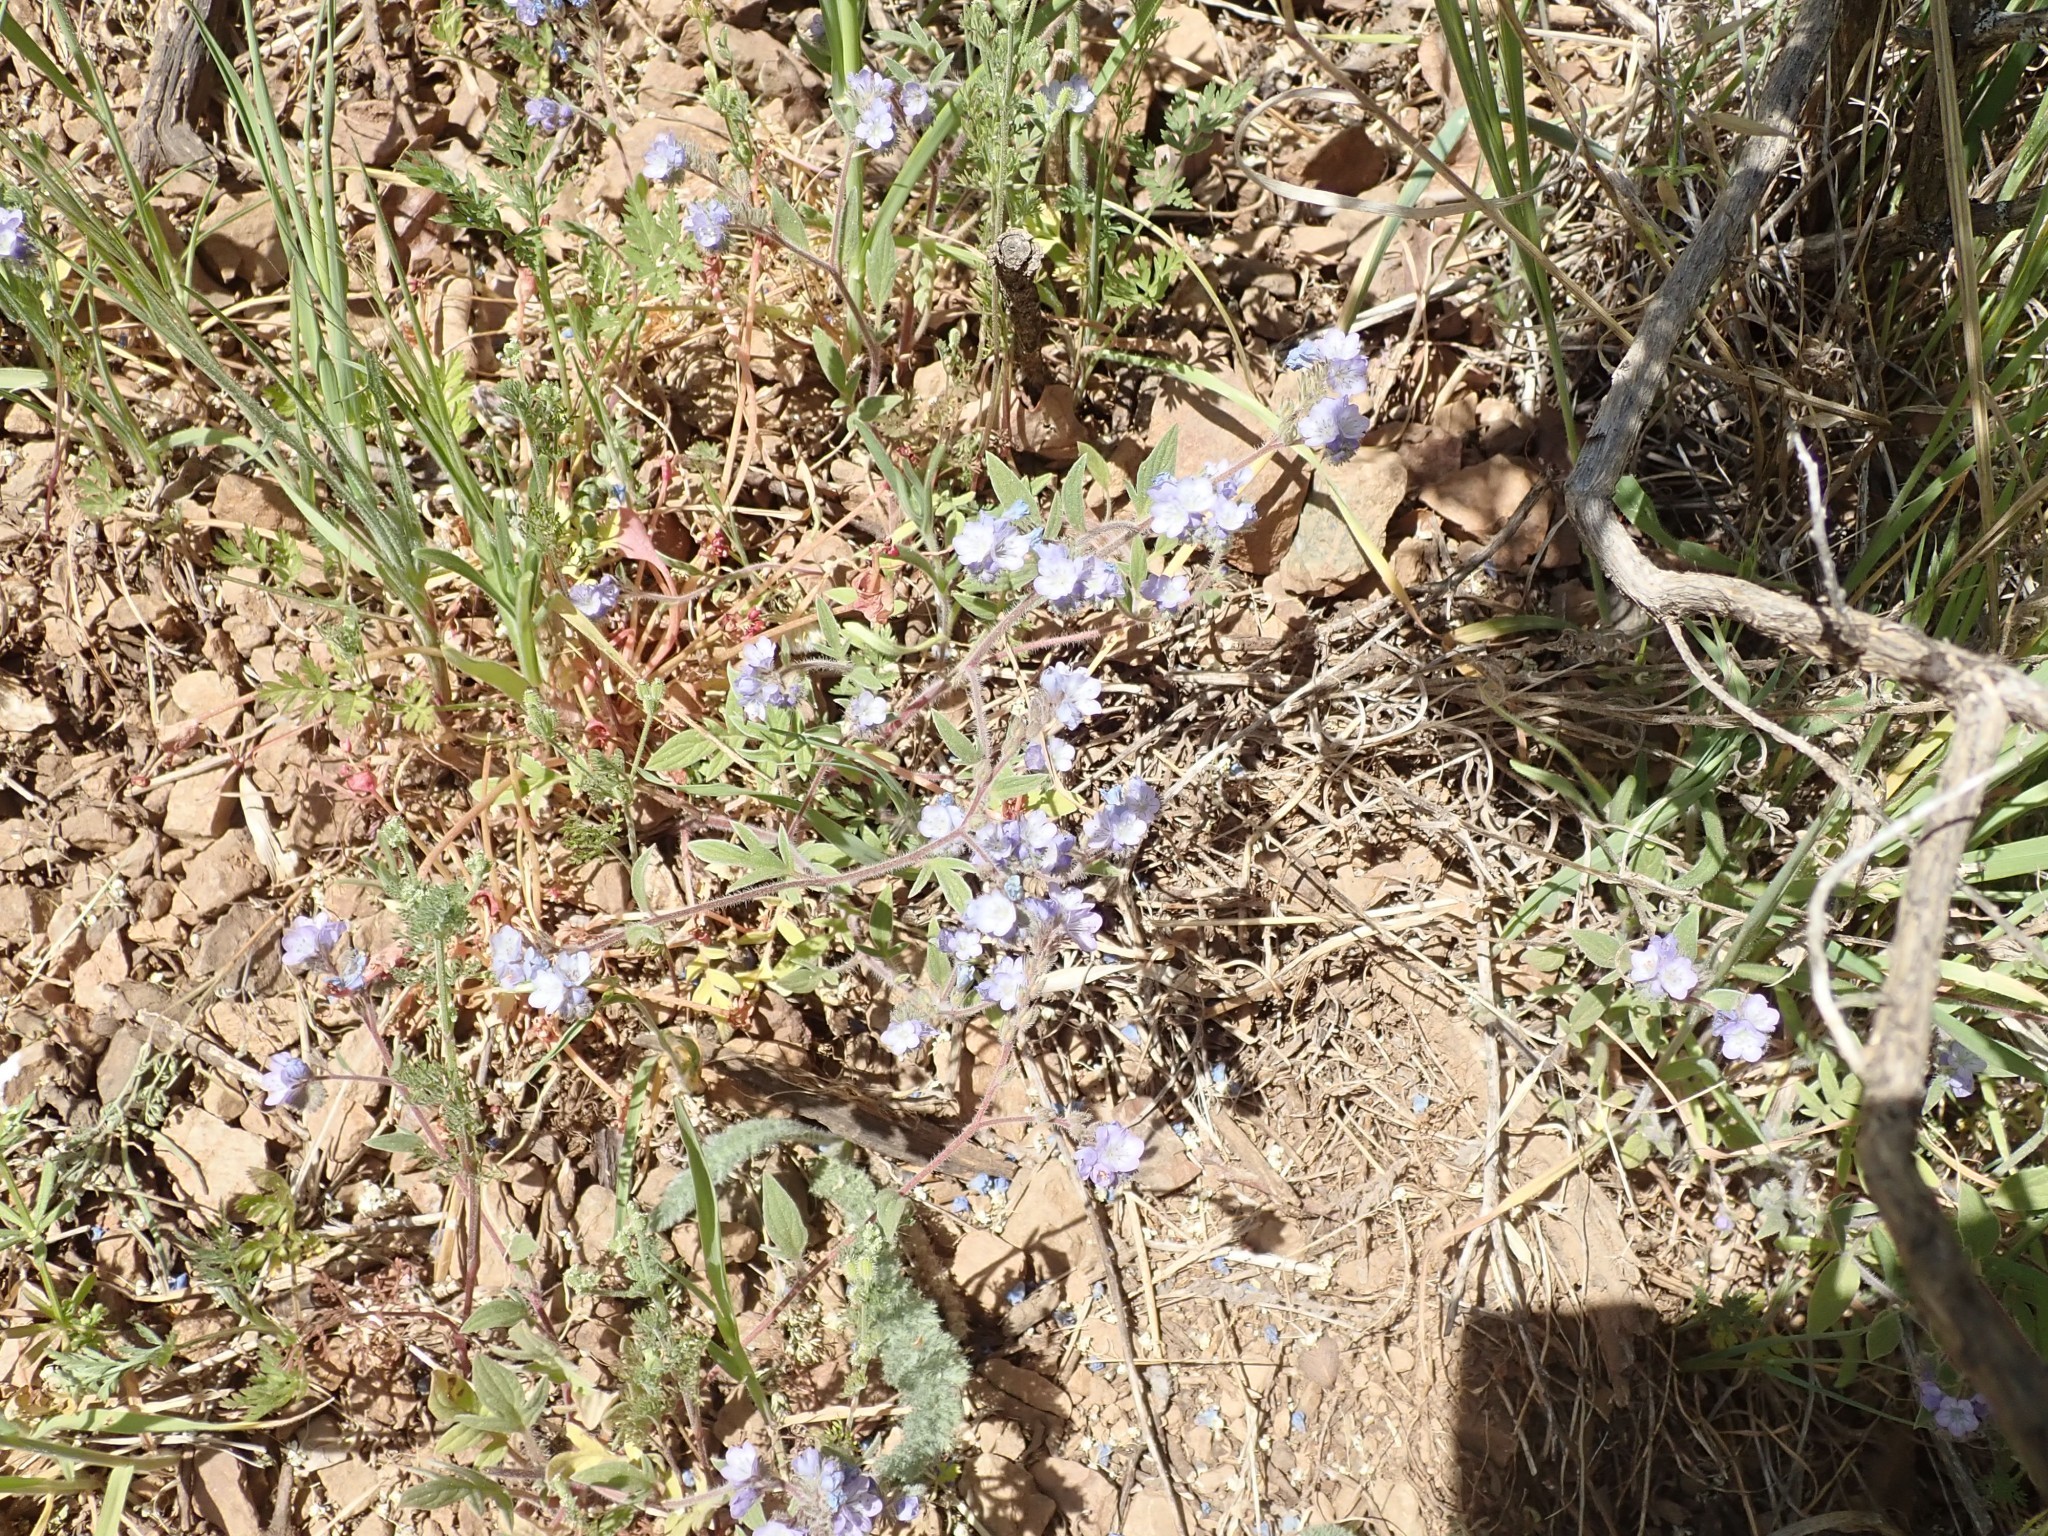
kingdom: Plantae
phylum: Tracheophyta
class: Magnoliopsida
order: Boraginales
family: Hydrophyllaceae
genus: Phacelia
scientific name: Phacelia breweri
